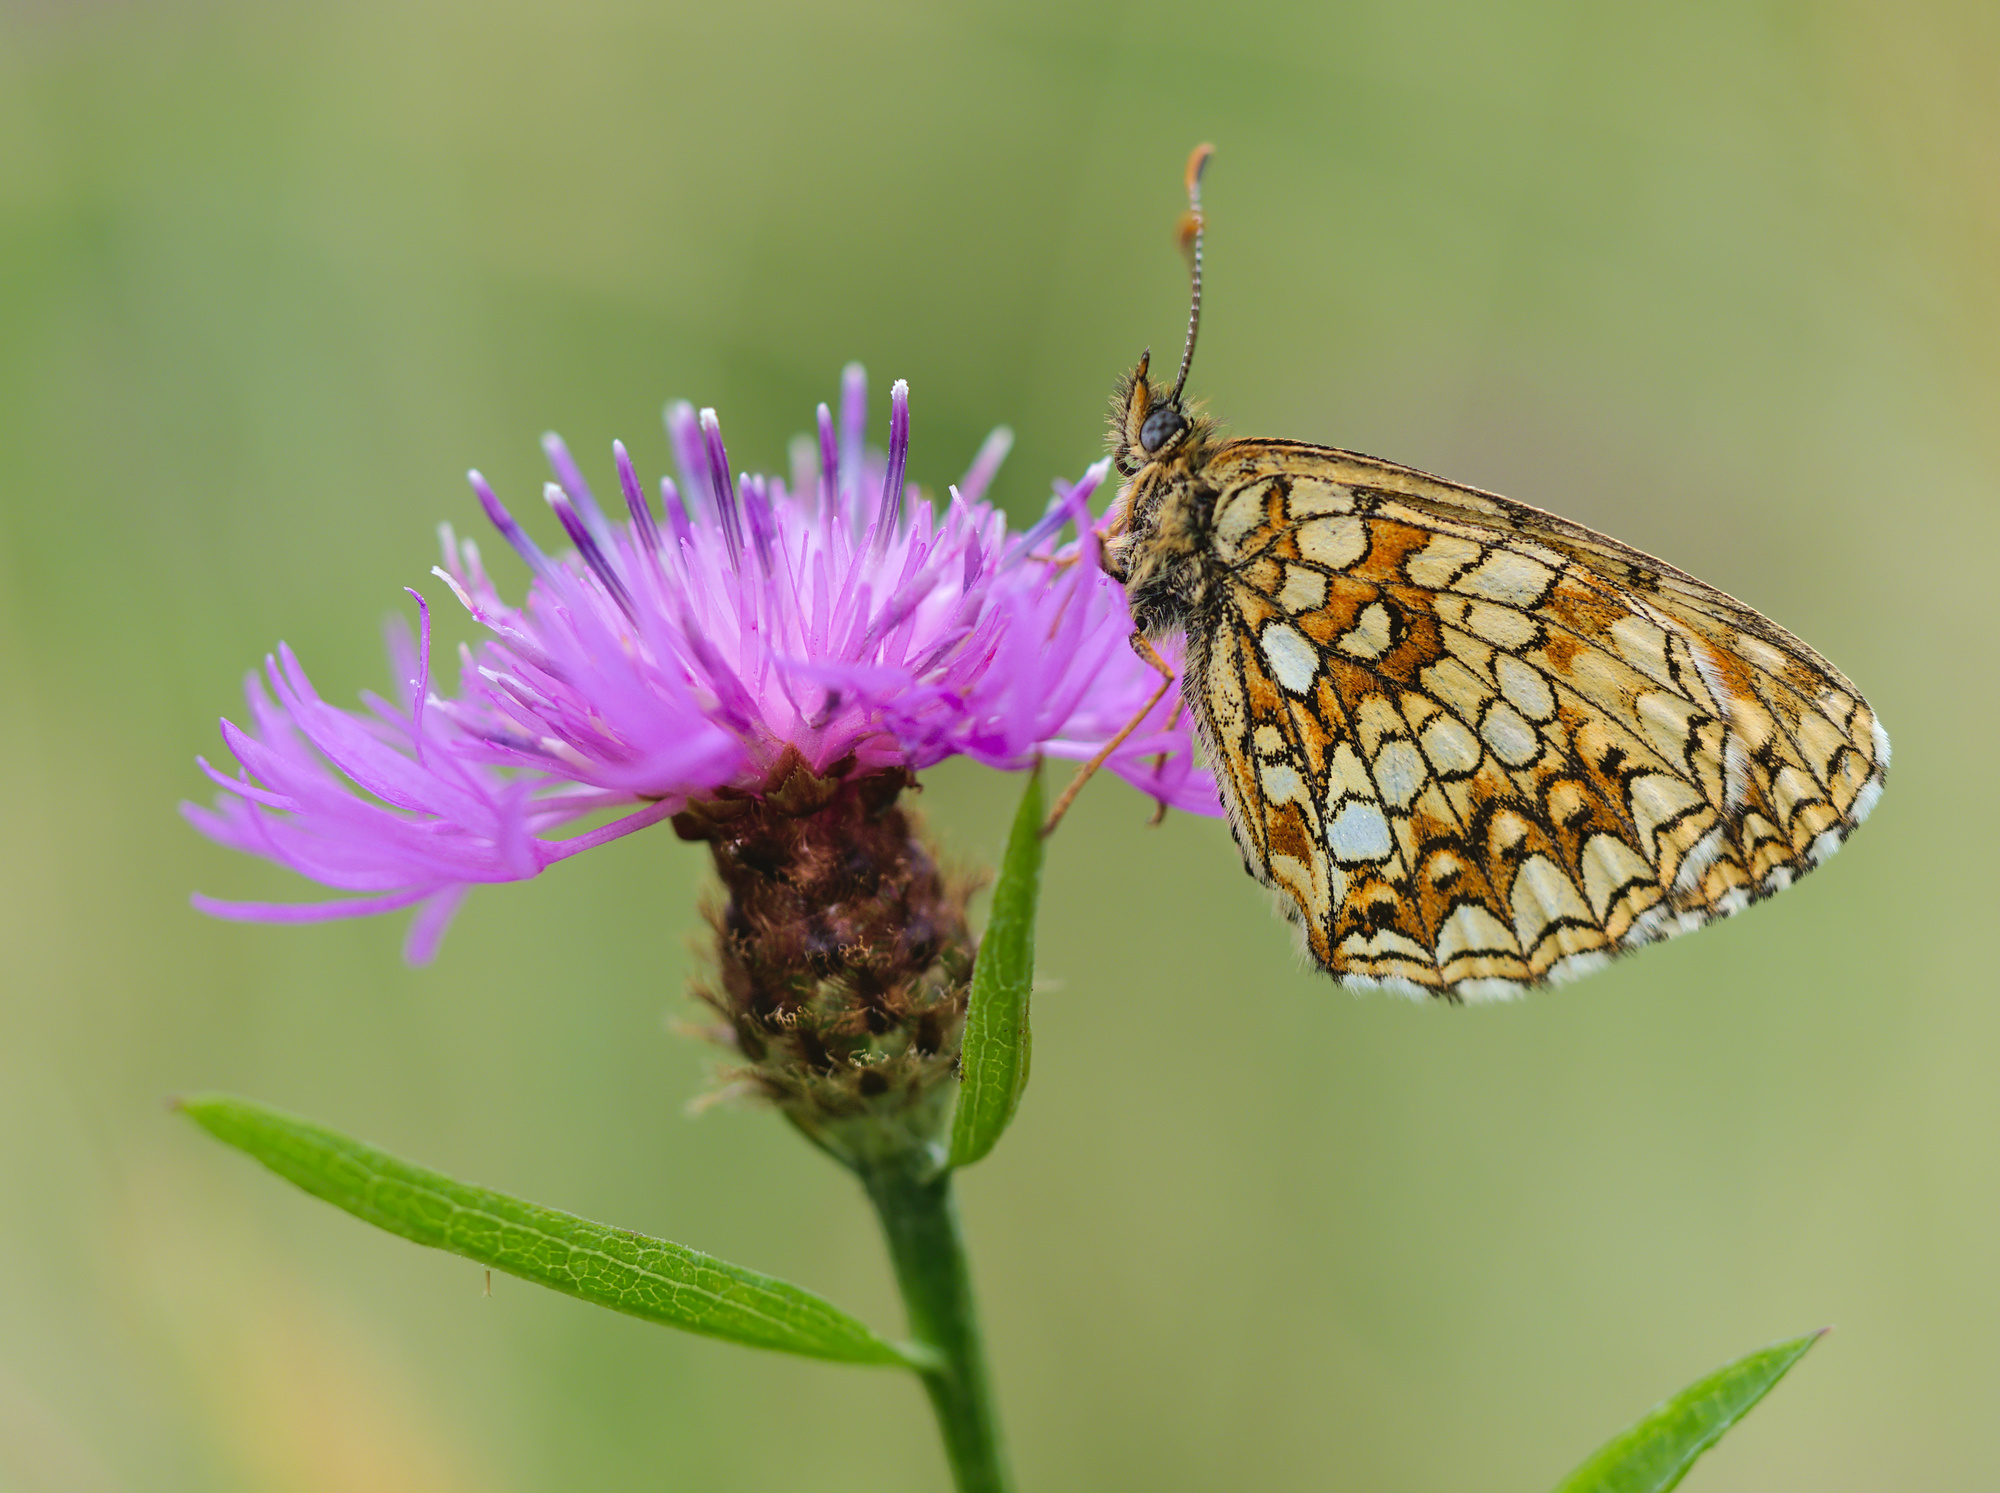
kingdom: Animalia
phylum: Arthropoda
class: Insecta
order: Lepidoptera
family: Nymphalidae
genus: Melitaea
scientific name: Melitaea diamina
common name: False heath fritillary
